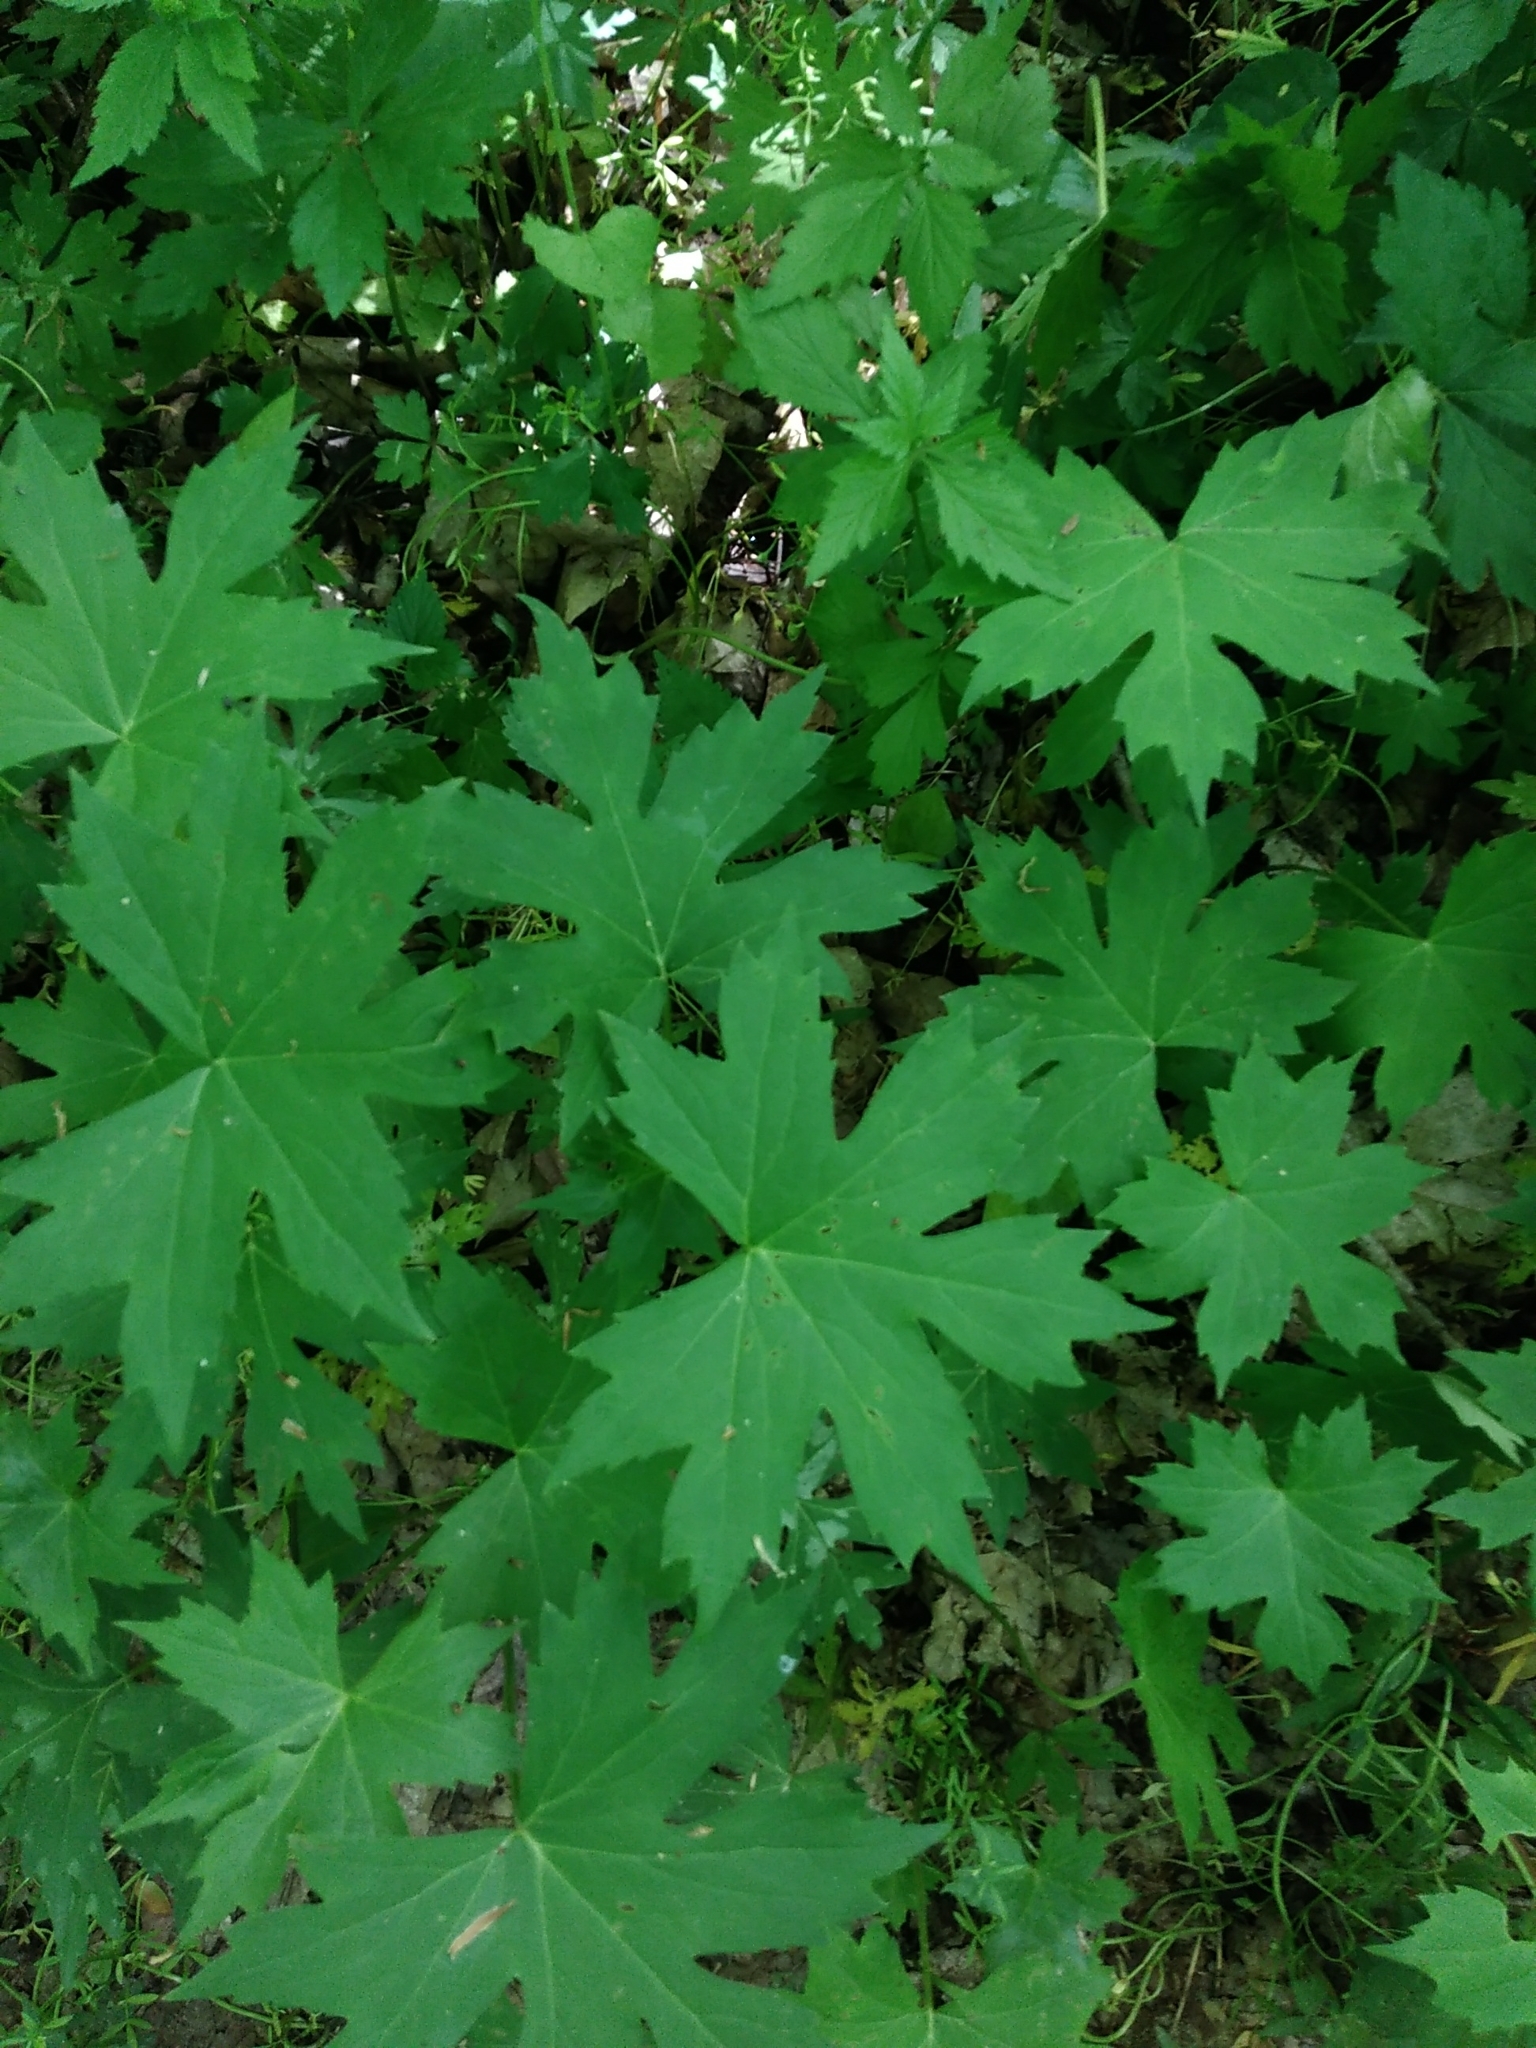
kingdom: Plantae
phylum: Tracheophyta
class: Magnoliopsida
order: Boraginales
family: Hydrophyllaceae
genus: Hydrophyllum
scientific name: Hydrophyllum canadense
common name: Canada waterleaf
